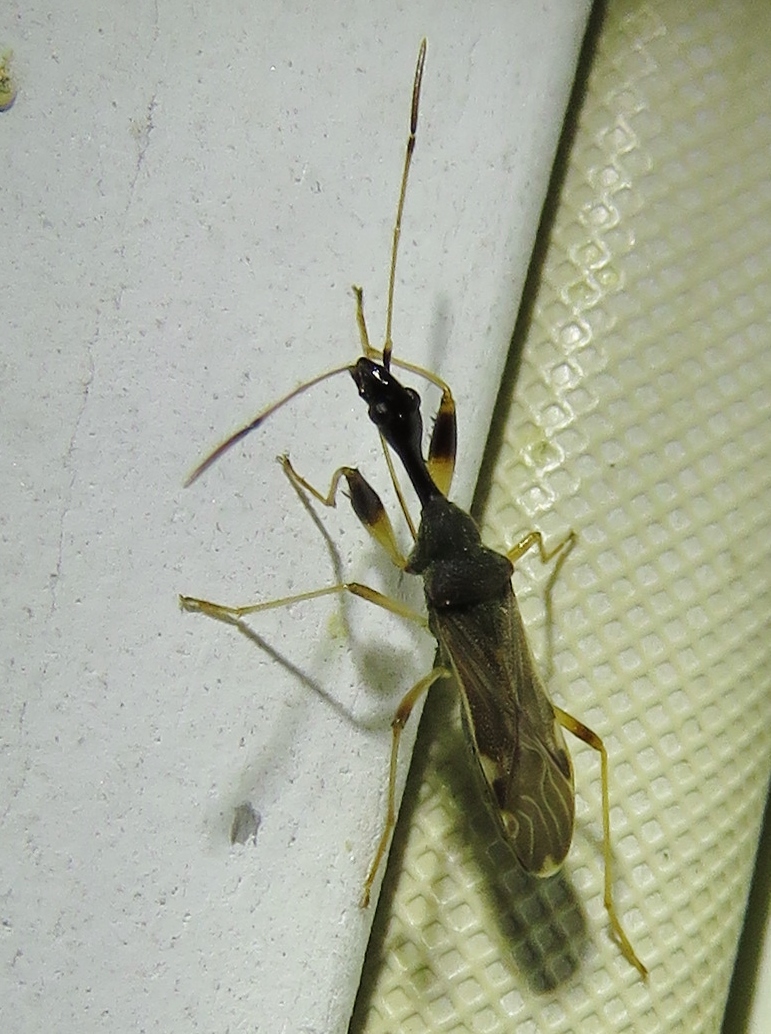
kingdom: Animalia
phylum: Arthropoda
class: Insecta
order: Hemiptera
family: Rhyparochromidae
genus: Myodocha
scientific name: Myodocha serripes
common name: Long-necked seed bug
